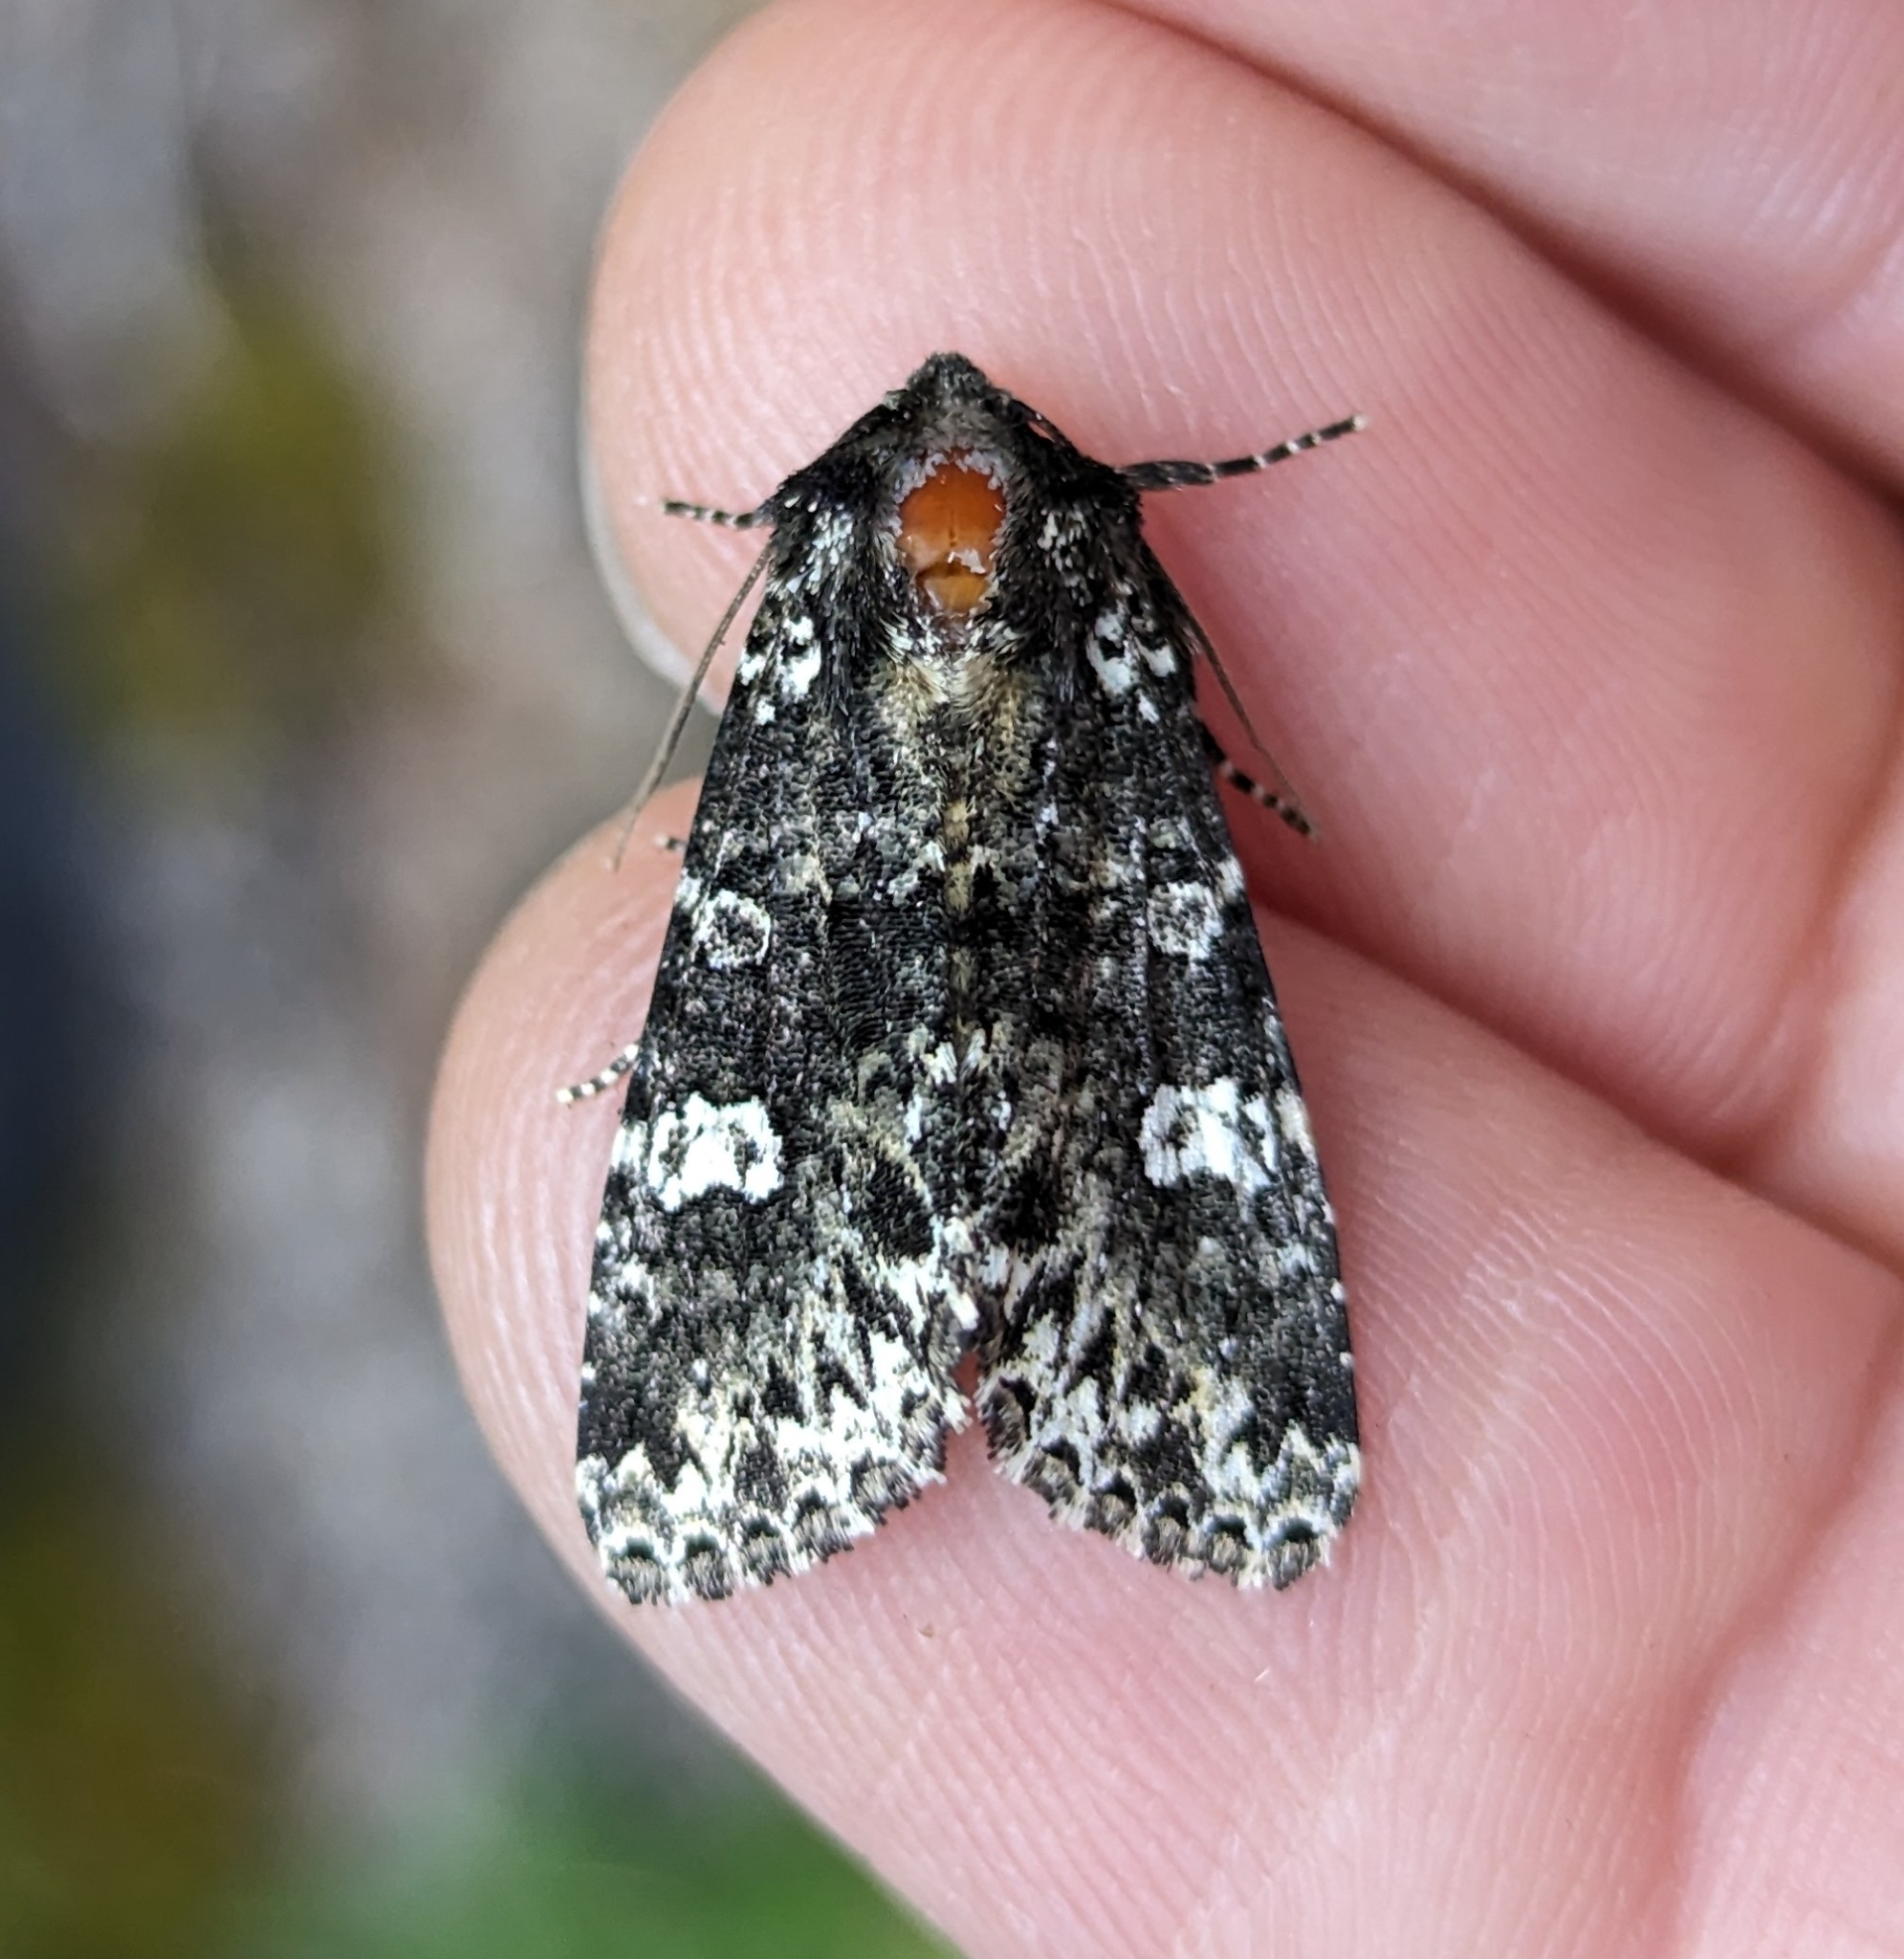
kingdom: Animalia
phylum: Arthropoda
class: Insecta
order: Lepidoptera
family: Noctuidae
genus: Melanchra
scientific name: Melanchra adjuncta
